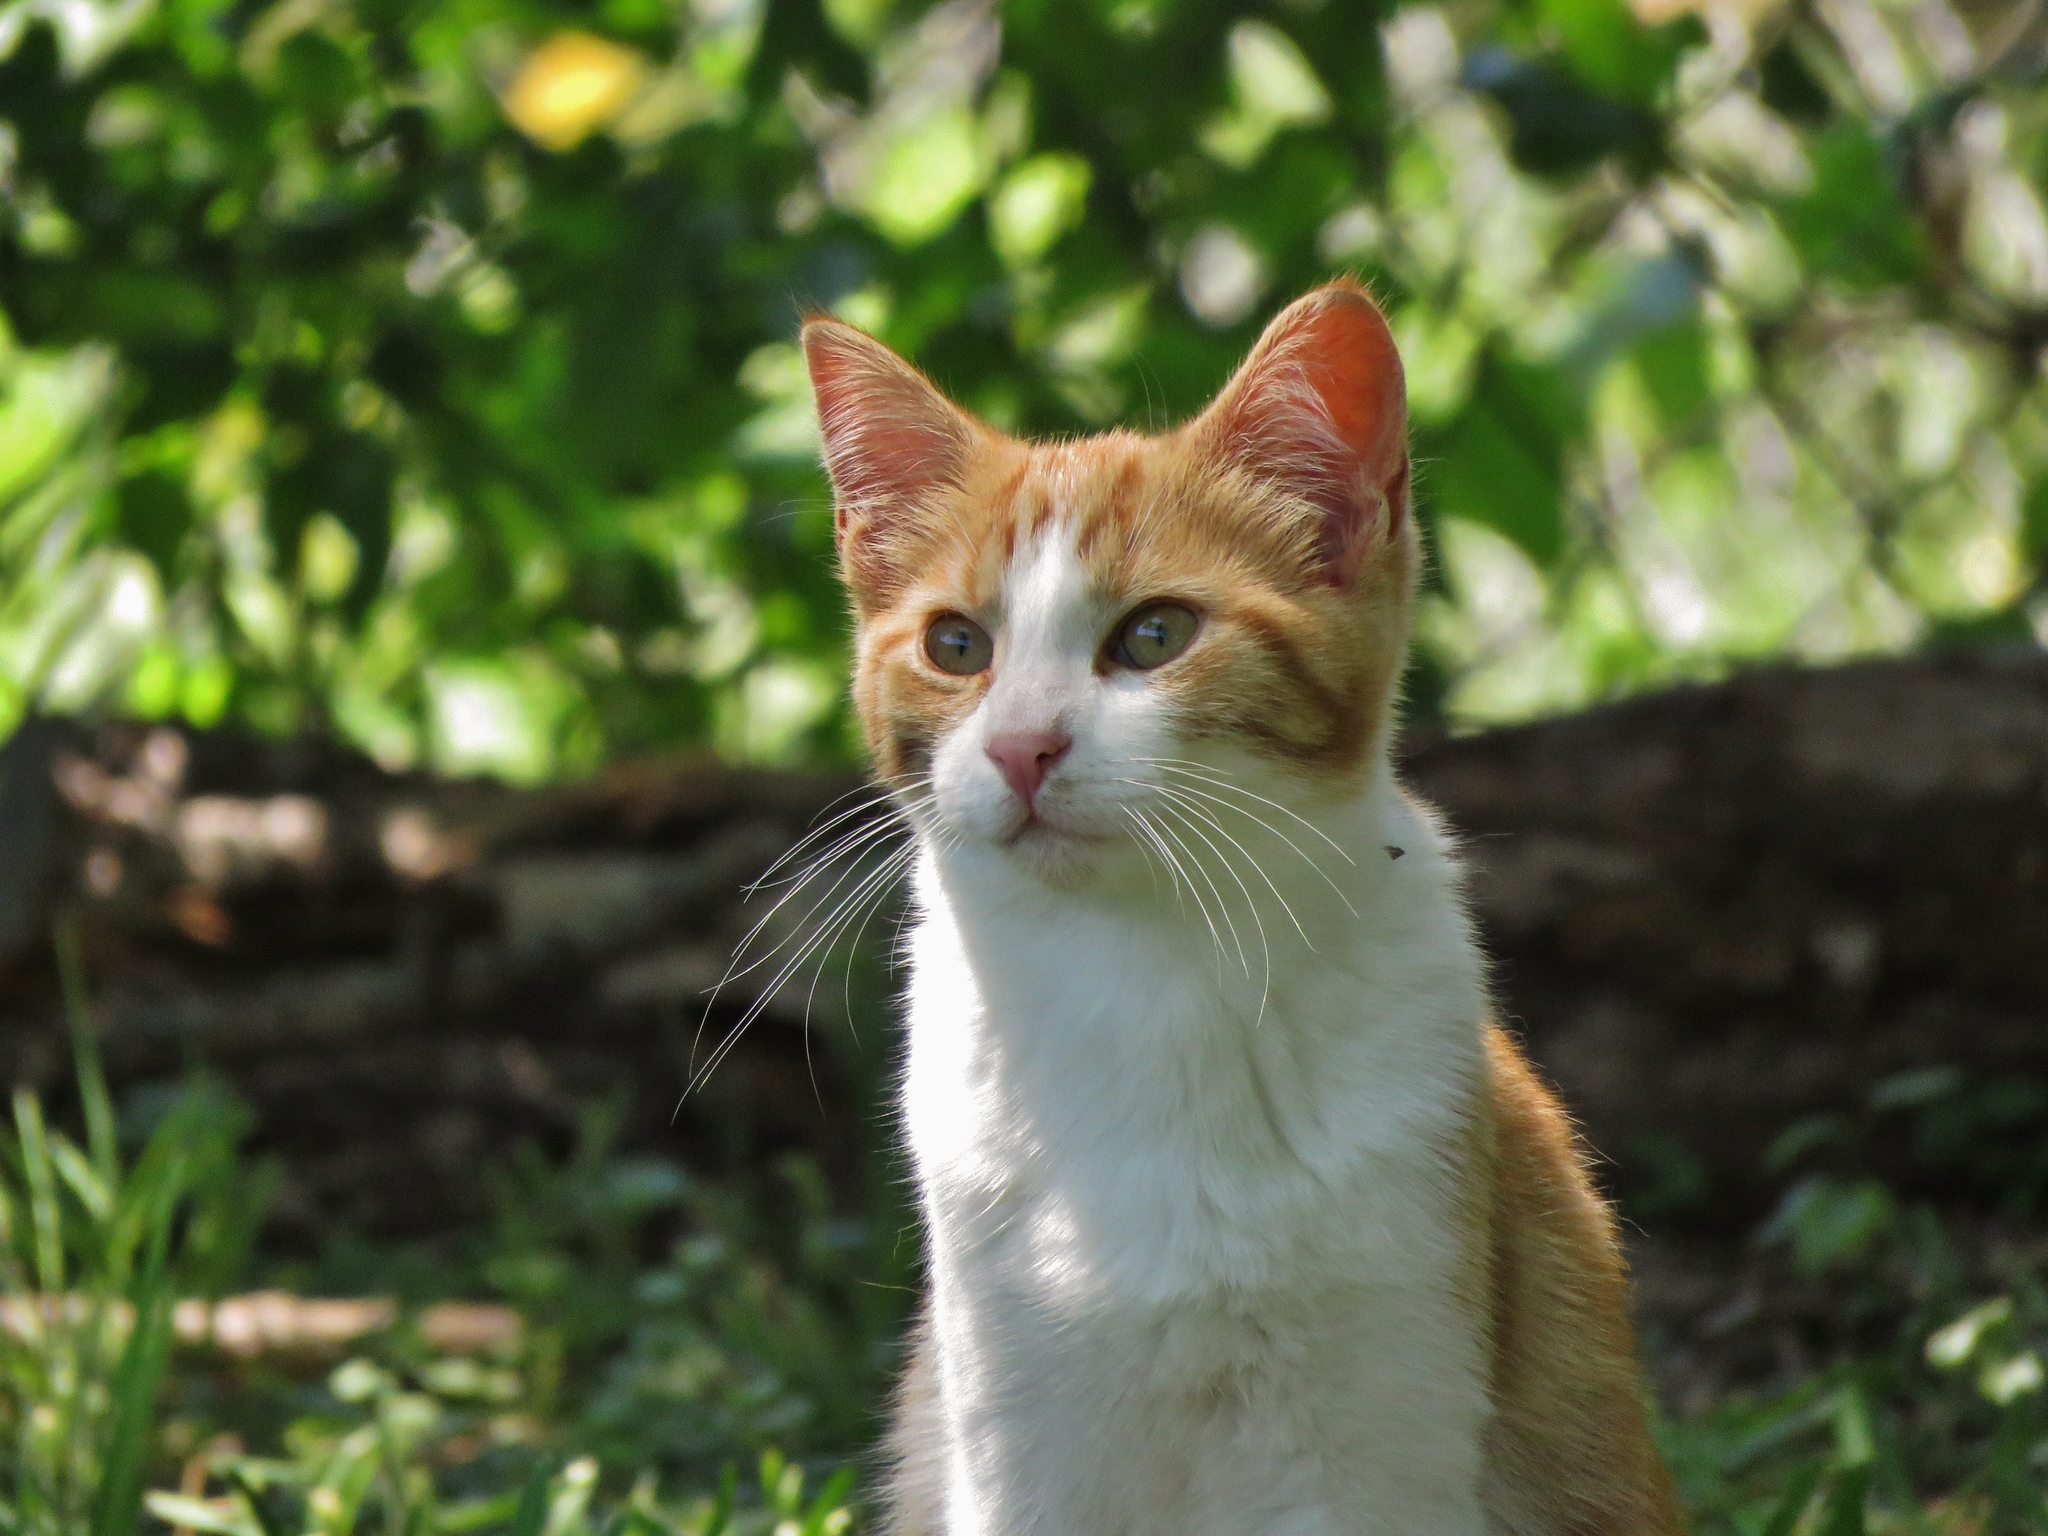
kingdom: Animalia
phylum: Chordata
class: Mammalia
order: Carnivora
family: Felidae
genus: Felis
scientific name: Felis catus
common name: Domestic cat
